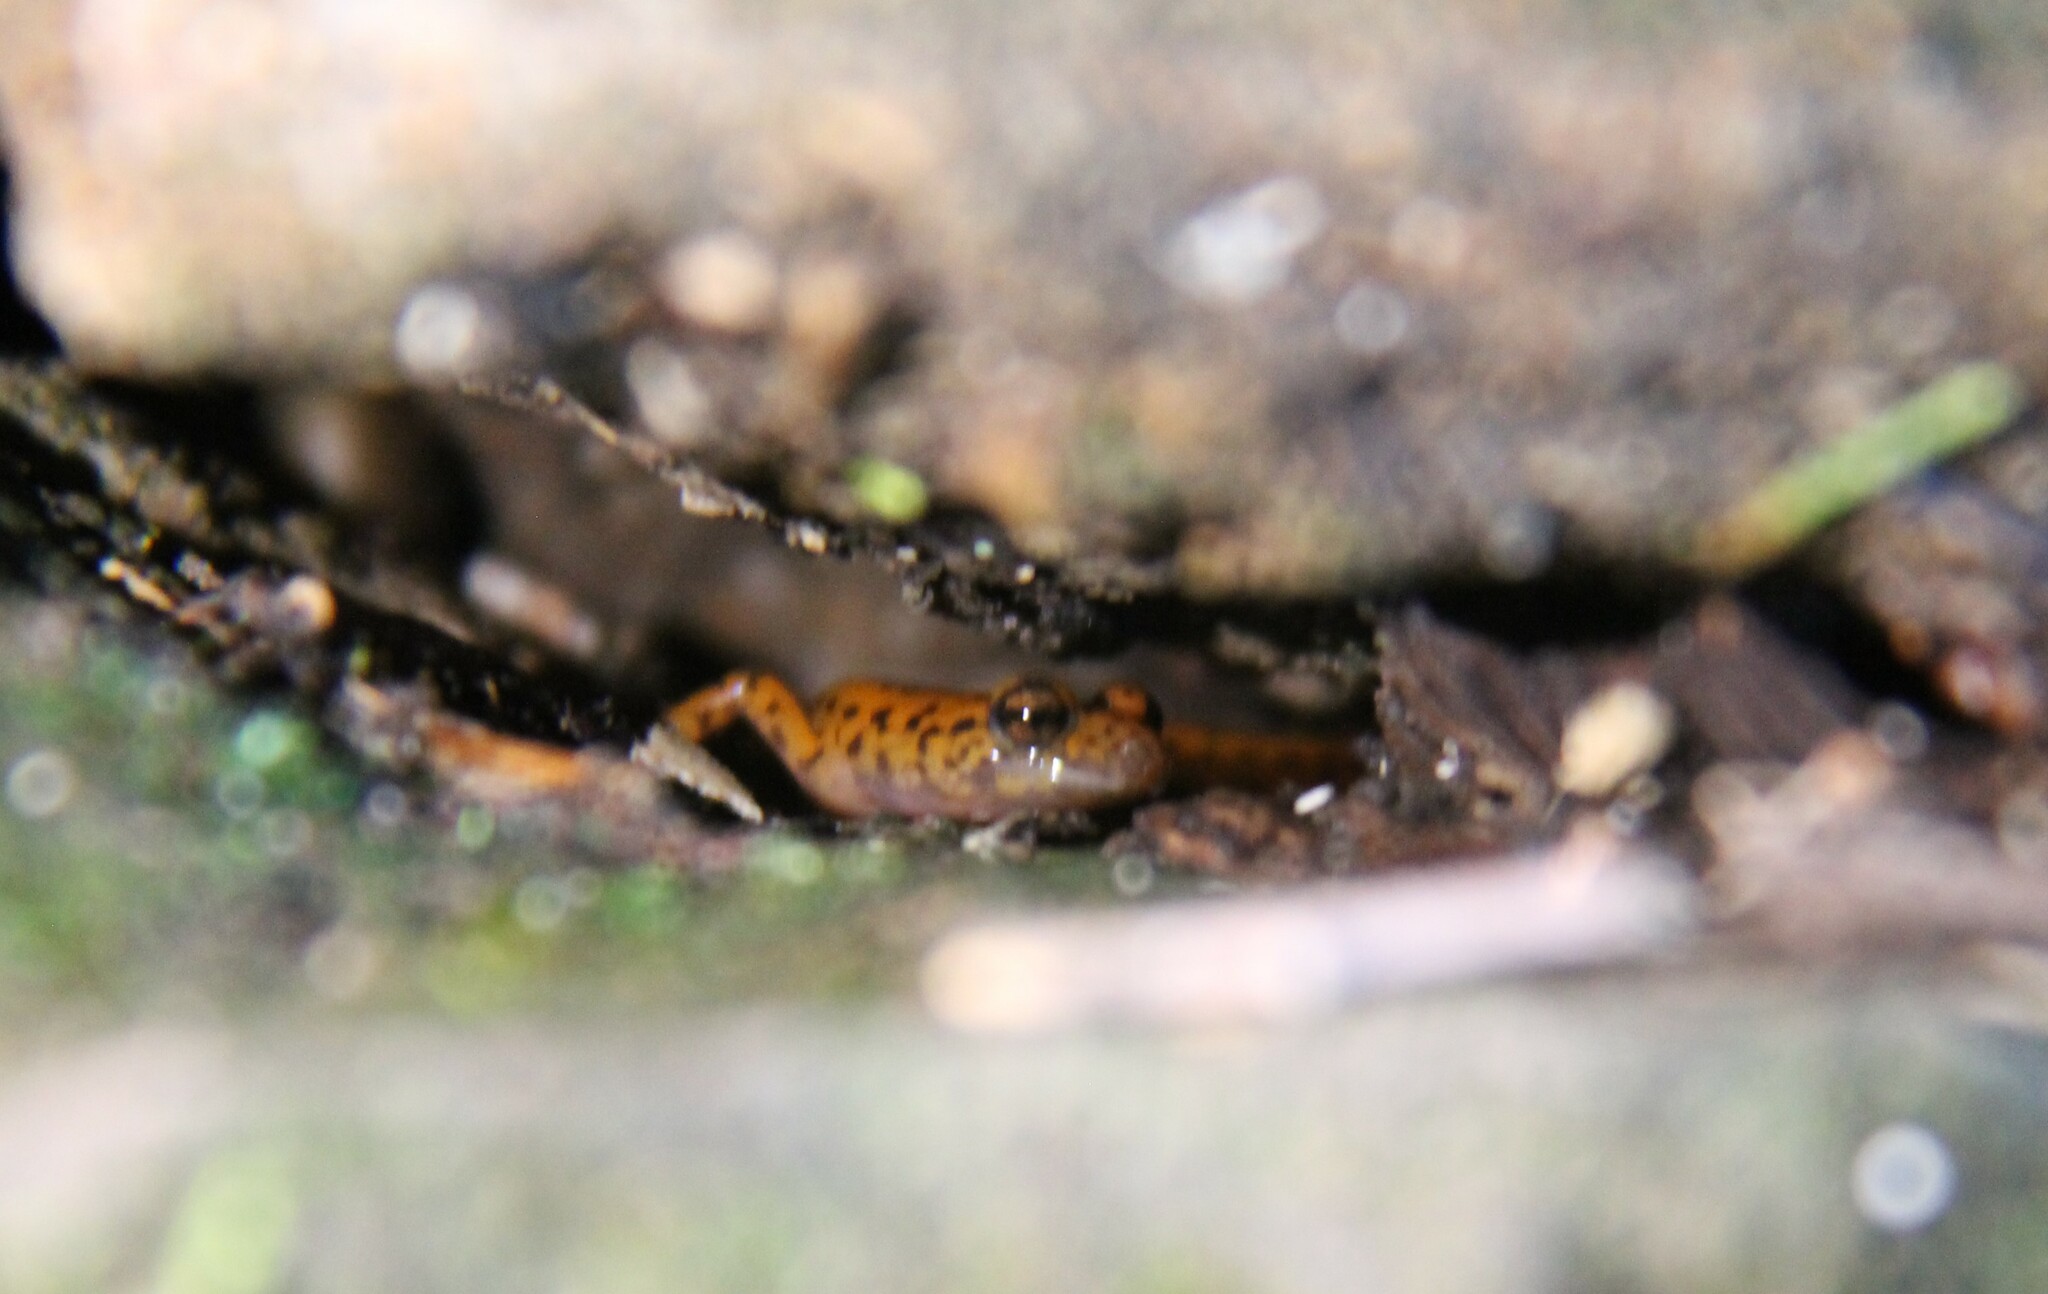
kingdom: Animalia
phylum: Chordata
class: Amphibia
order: Caudata
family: Plethodontidae
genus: Eurycea
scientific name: Eurycea lucifuga
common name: Cave salamander
